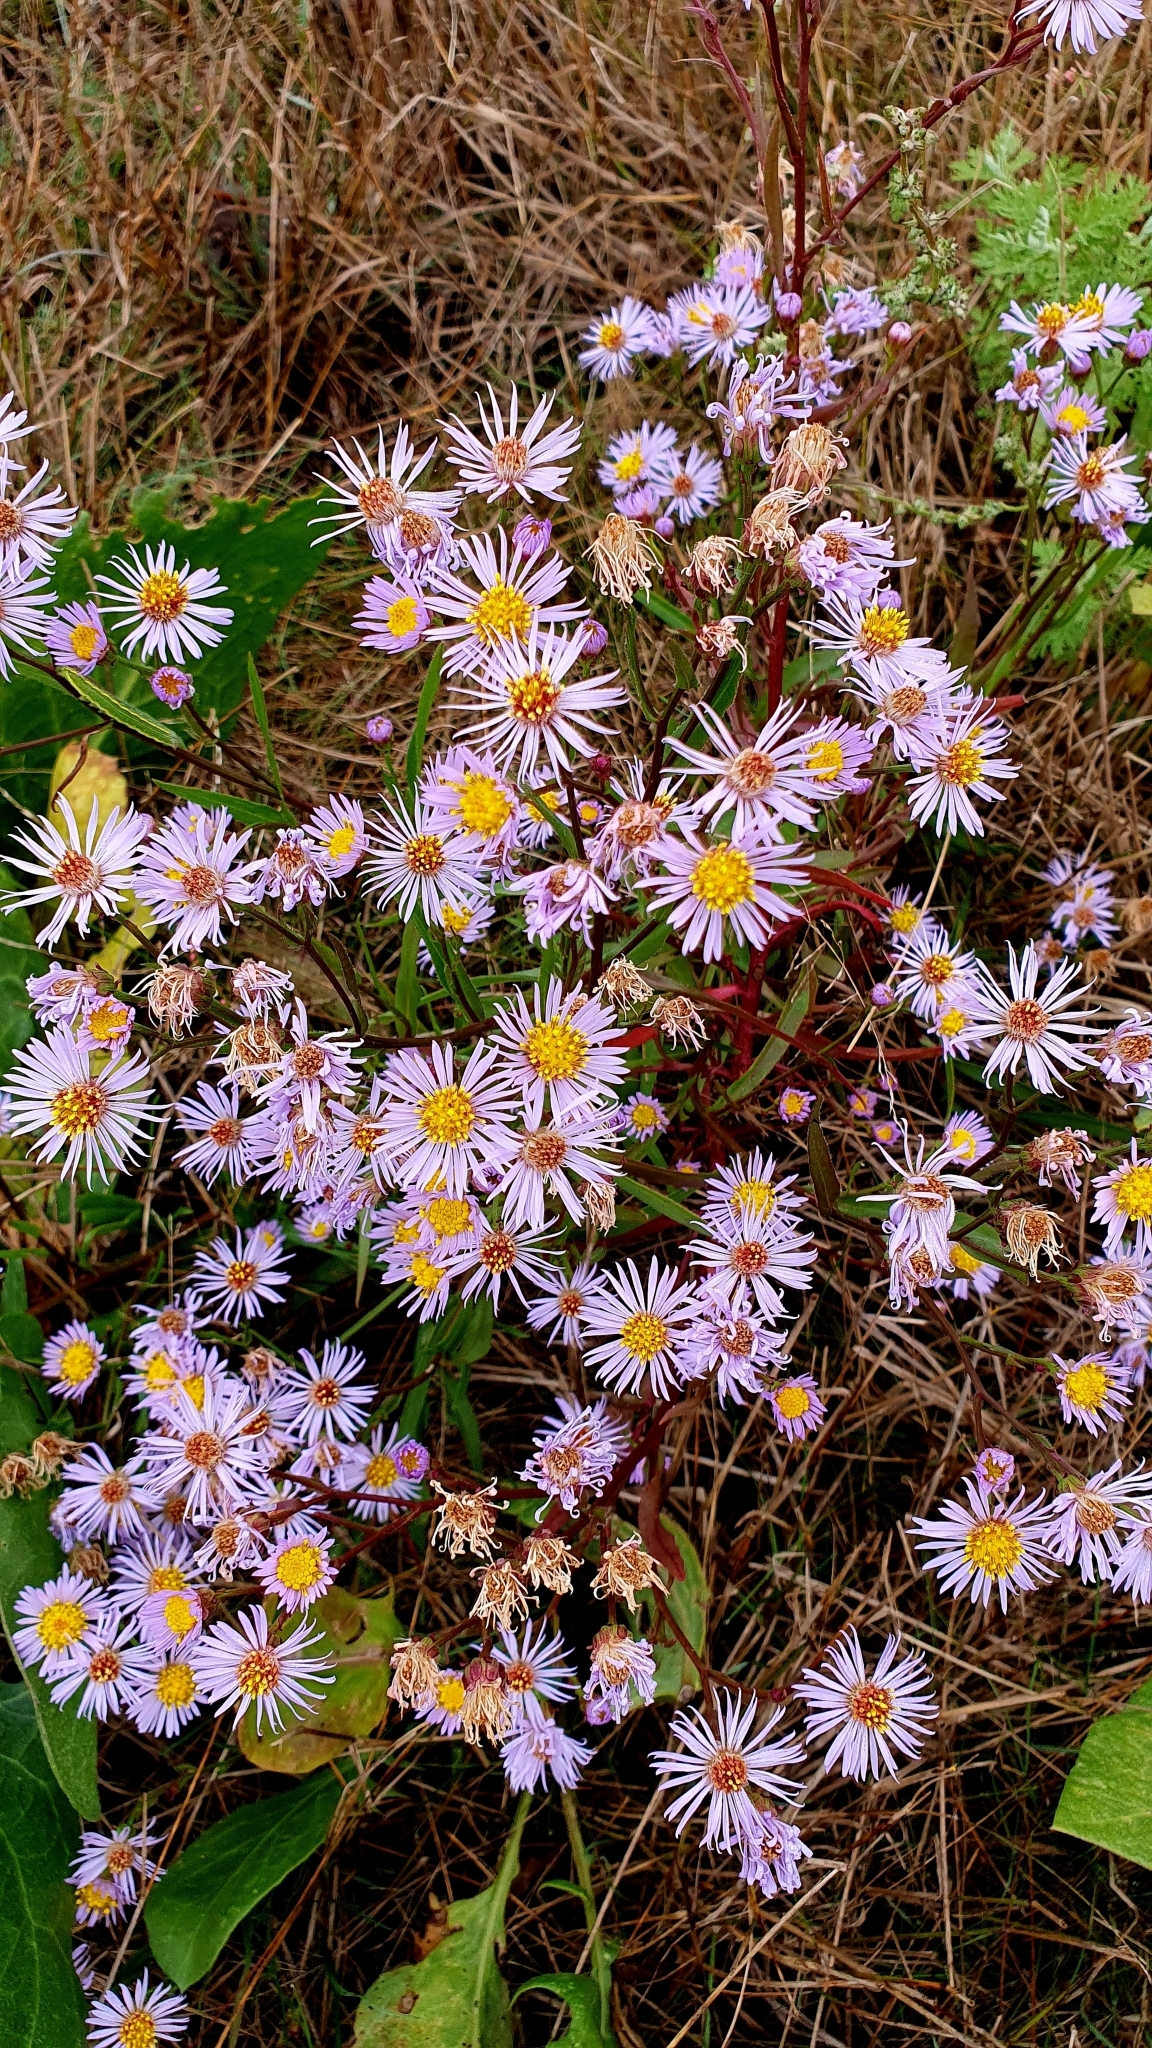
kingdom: Plantae
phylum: Tracheophyta
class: Magnoliopsida
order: Asterales
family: Asteraceae
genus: Tripolium
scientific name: Tripolium pannonicum
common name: Sea aster
